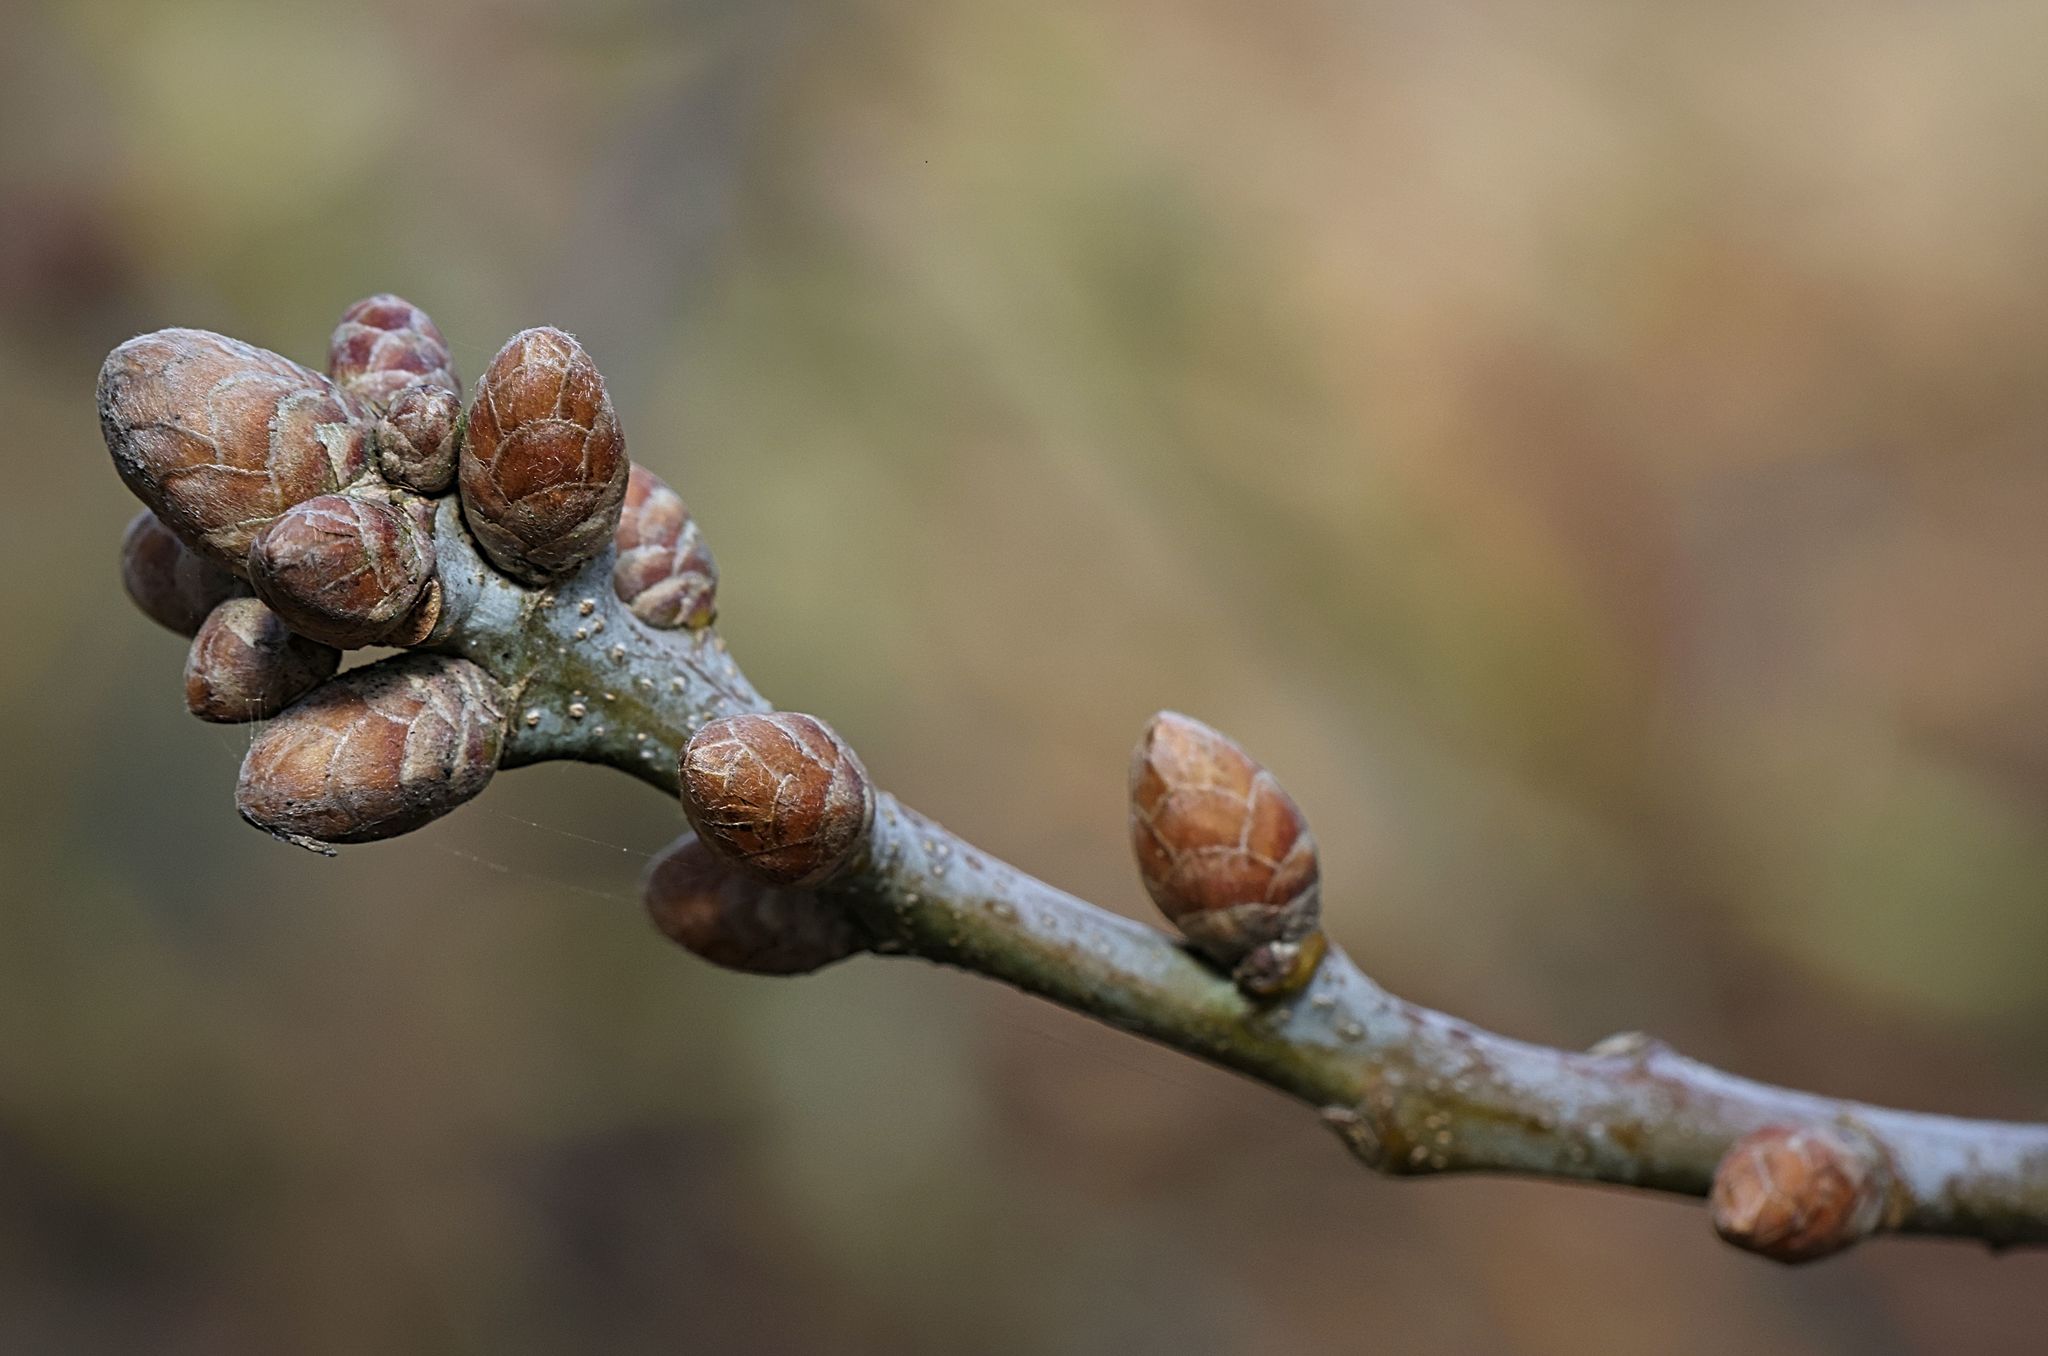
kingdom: Plantae
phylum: Tracheophyta
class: Magnoliopsida
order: Fagales
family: Fagaceae
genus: Quercus
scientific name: Quercus robur
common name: Pedunculate oak
